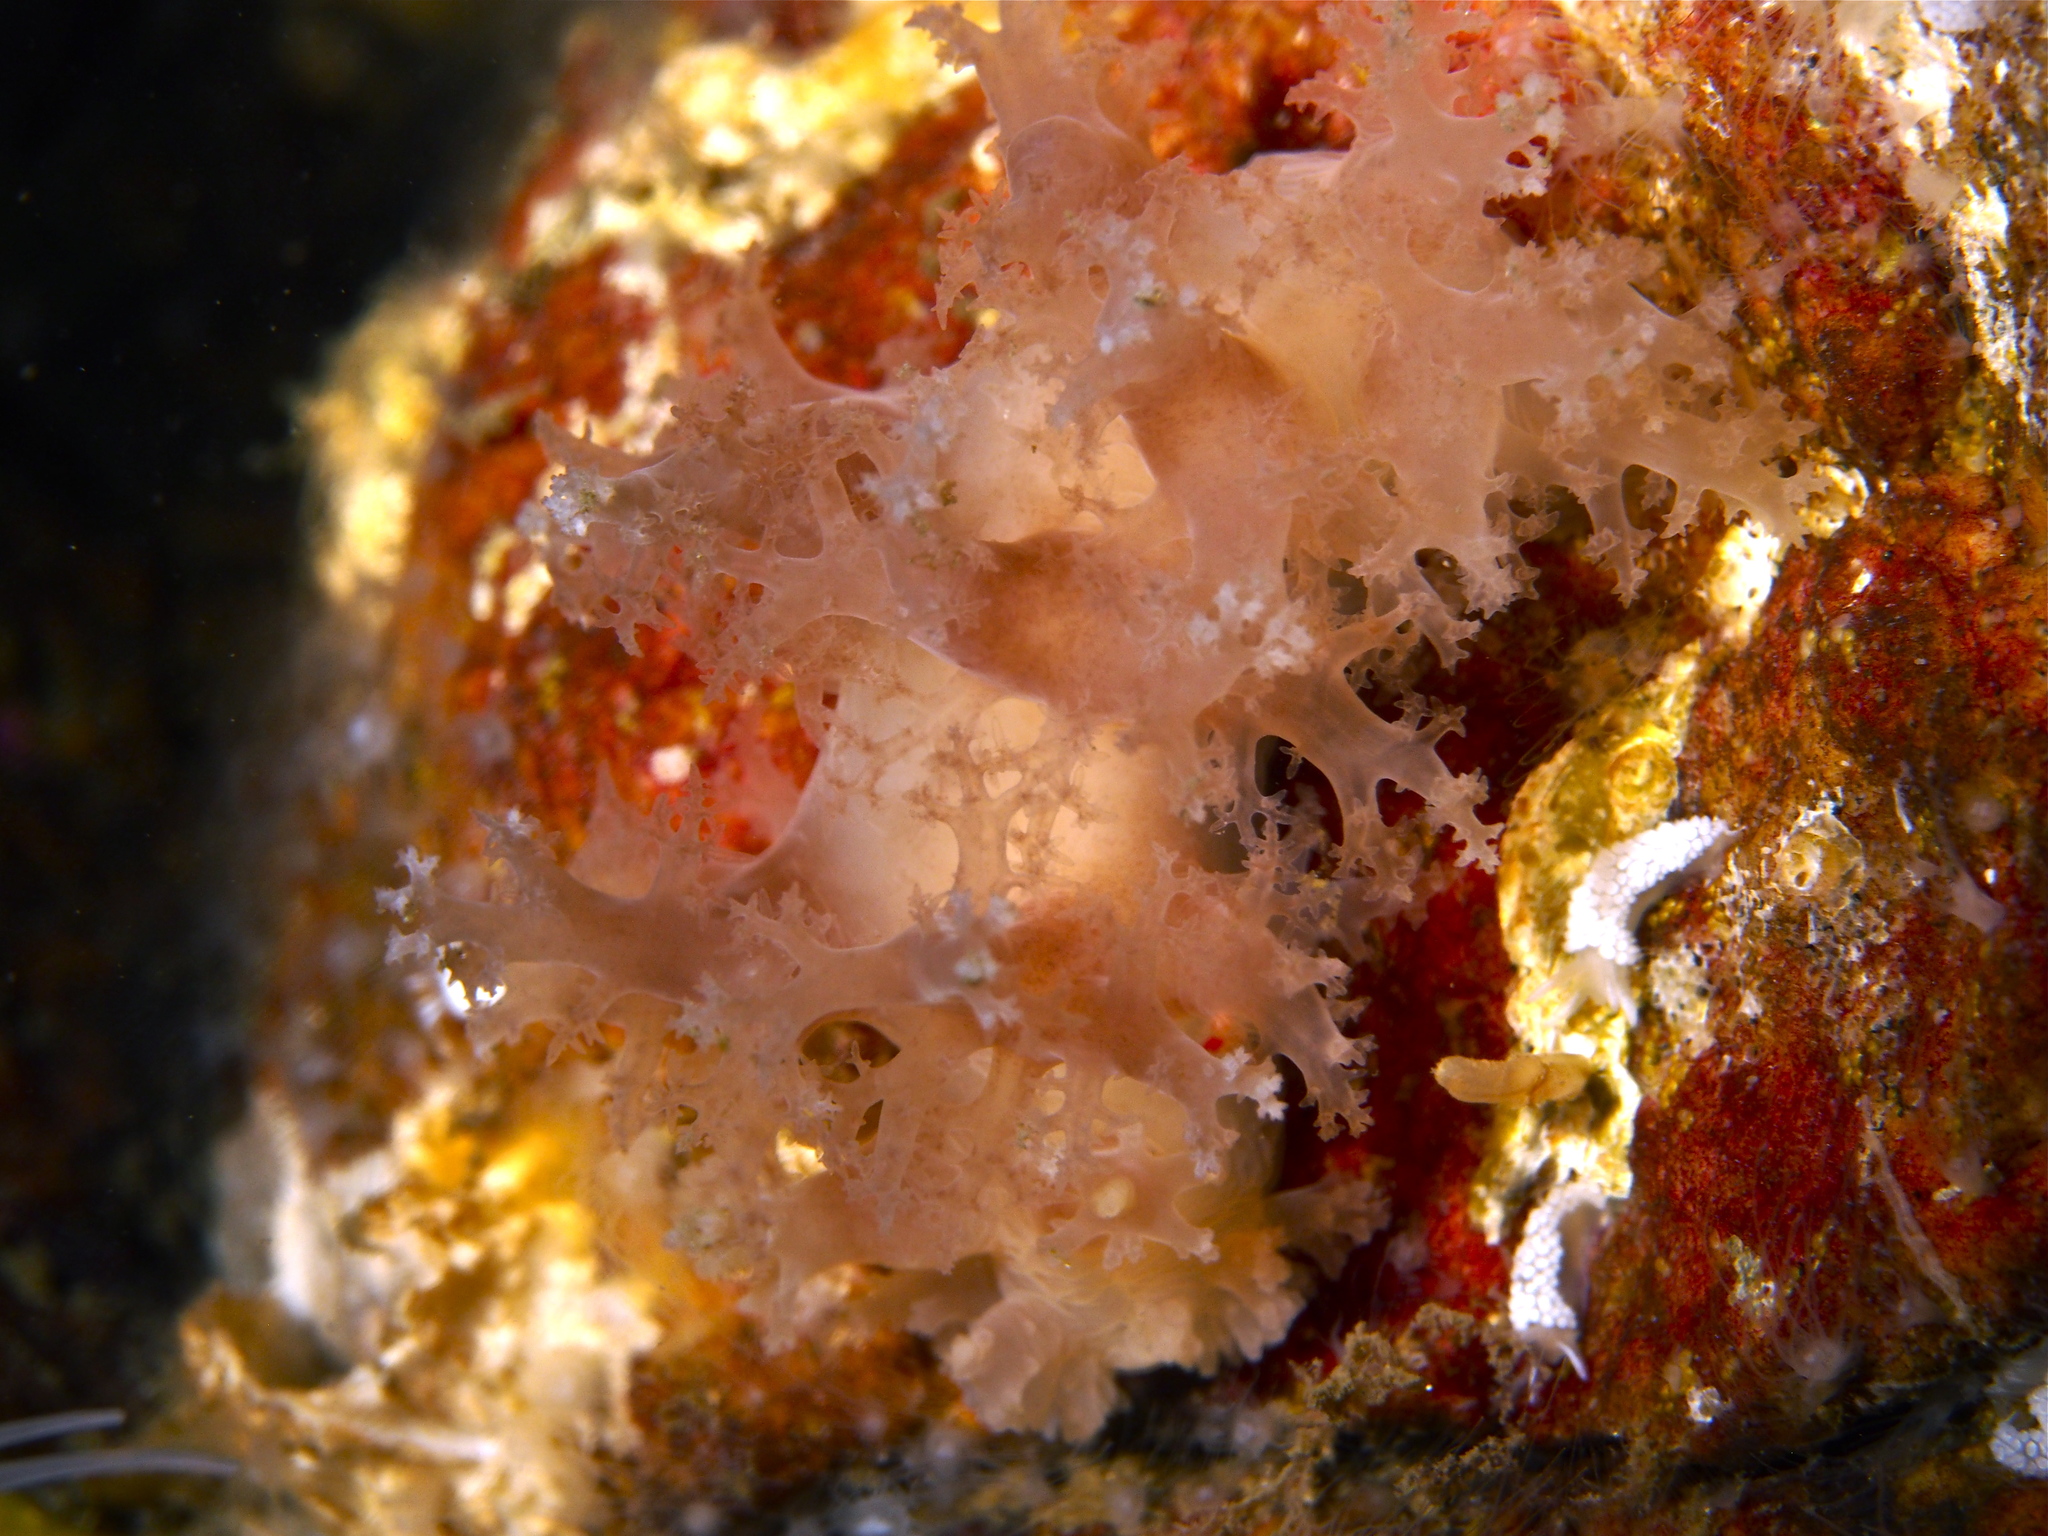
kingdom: Animalia
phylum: Mollusca
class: Gastropoda
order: Nudibranchia
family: Dendronotidae
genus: Dendronotus
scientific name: Dendronotus lacteus
